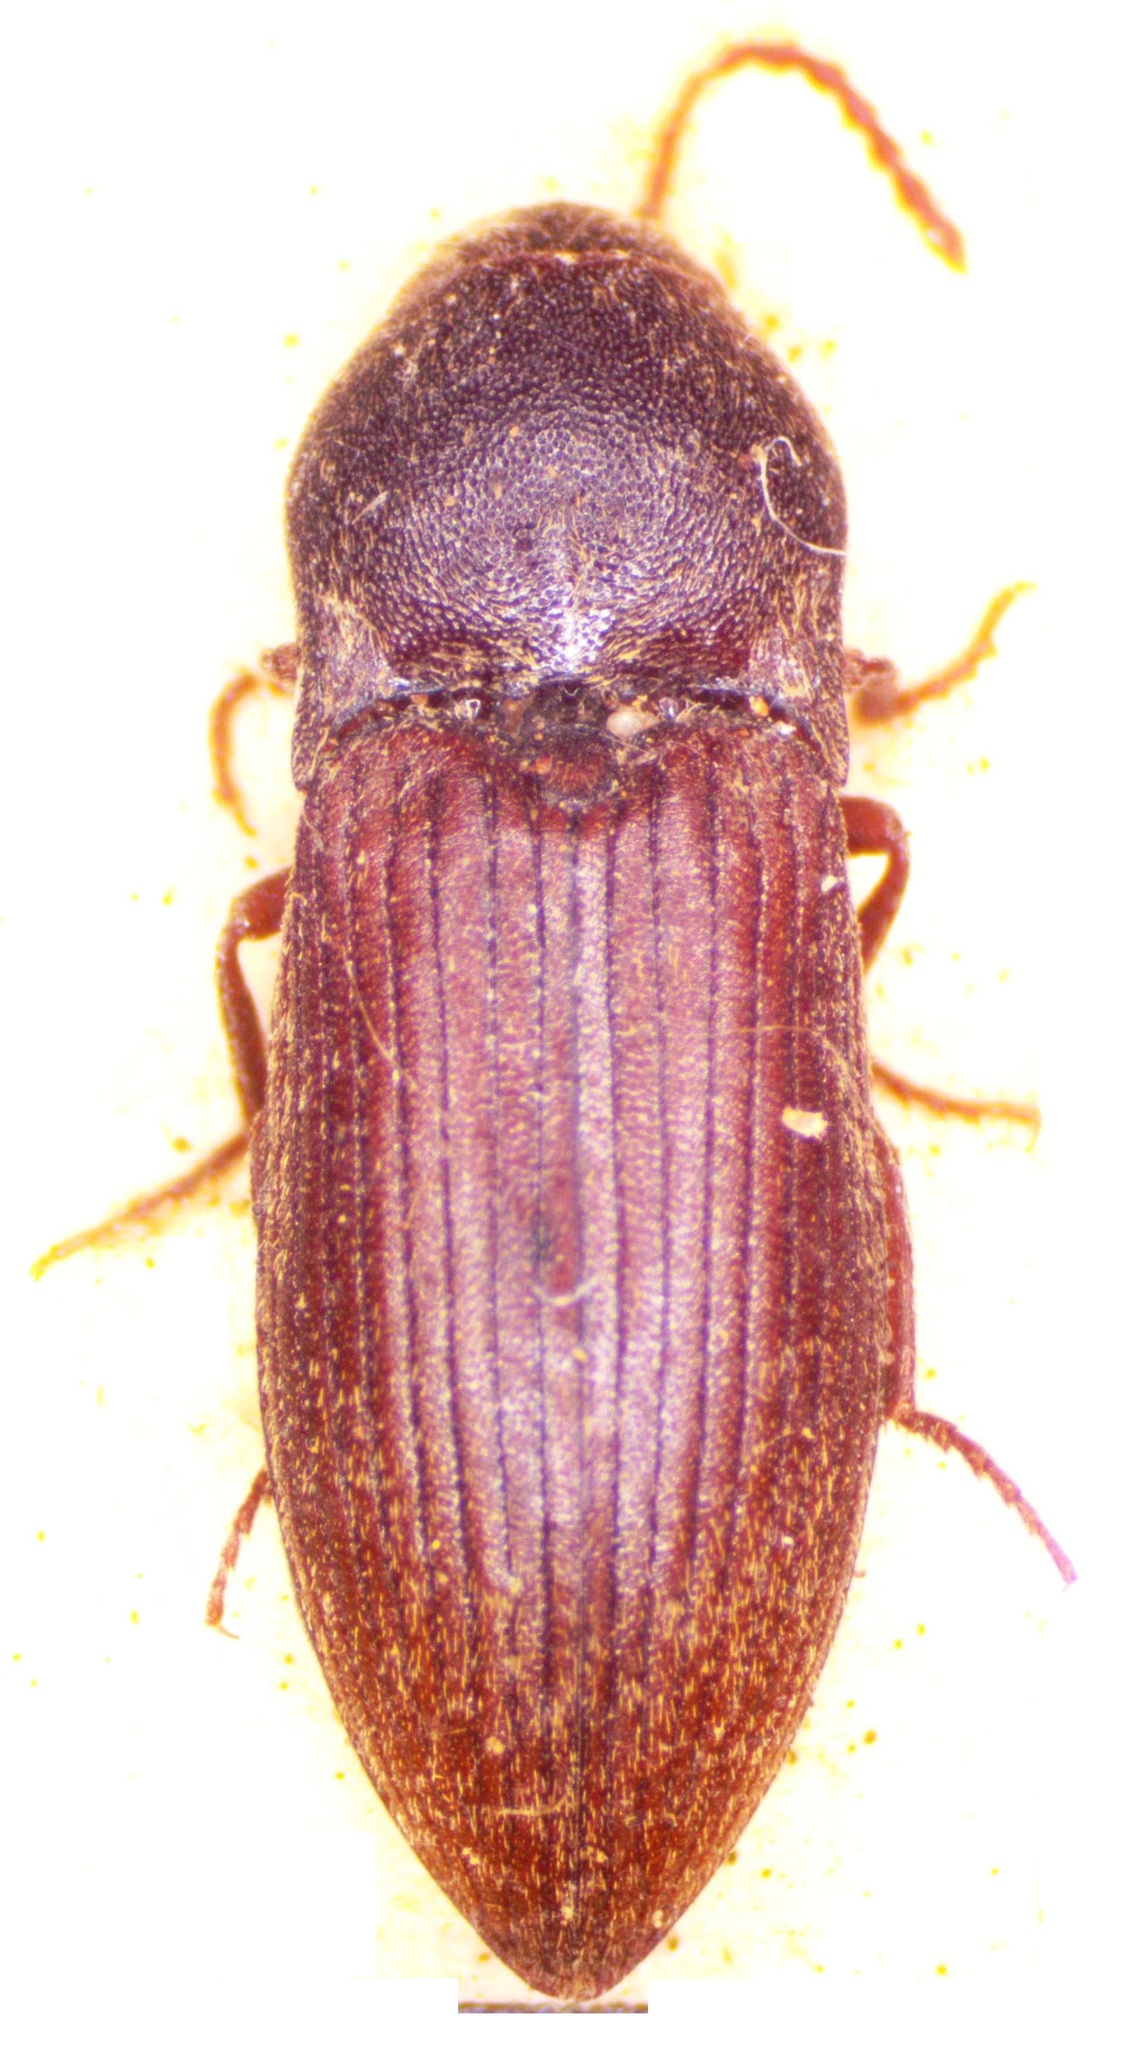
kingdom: Animalia
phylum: Arthropoda
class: Insecta
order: Coleoptera
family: Elateridae
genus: Agriotes
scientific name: Agriotes obscurus
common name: Dusky wireworm
